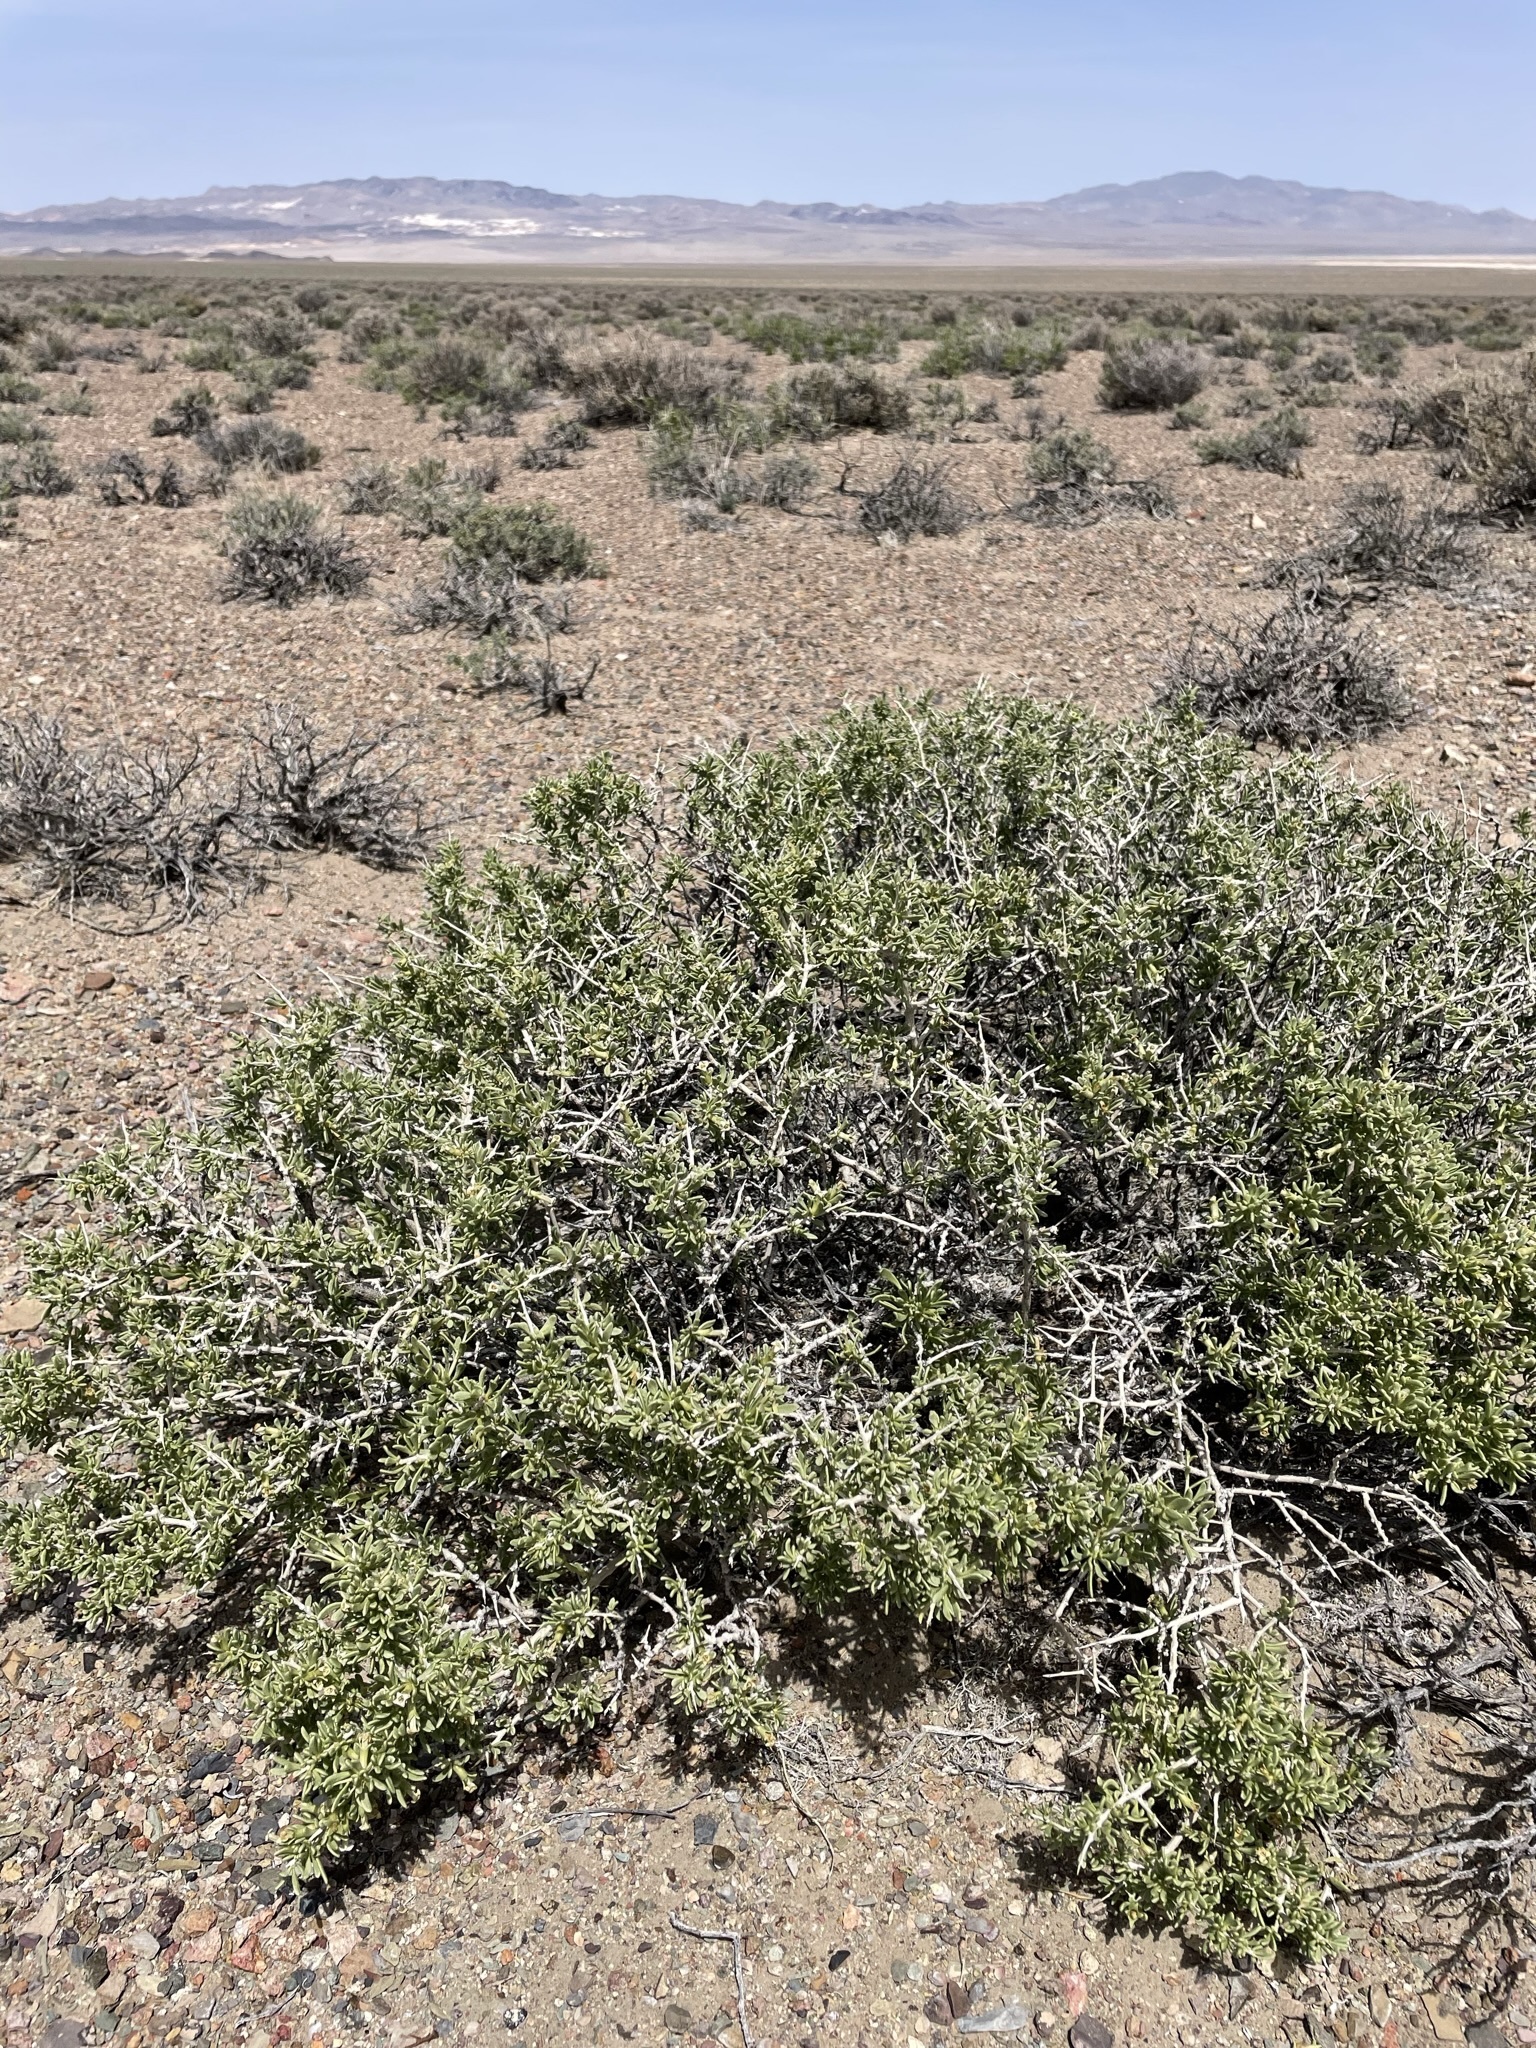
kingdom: Plantae
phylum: Tracheophyta
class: Magnoliopsida
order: Solanales
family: Solanaceae
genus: Lycium
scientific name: Lycium shockleyi
